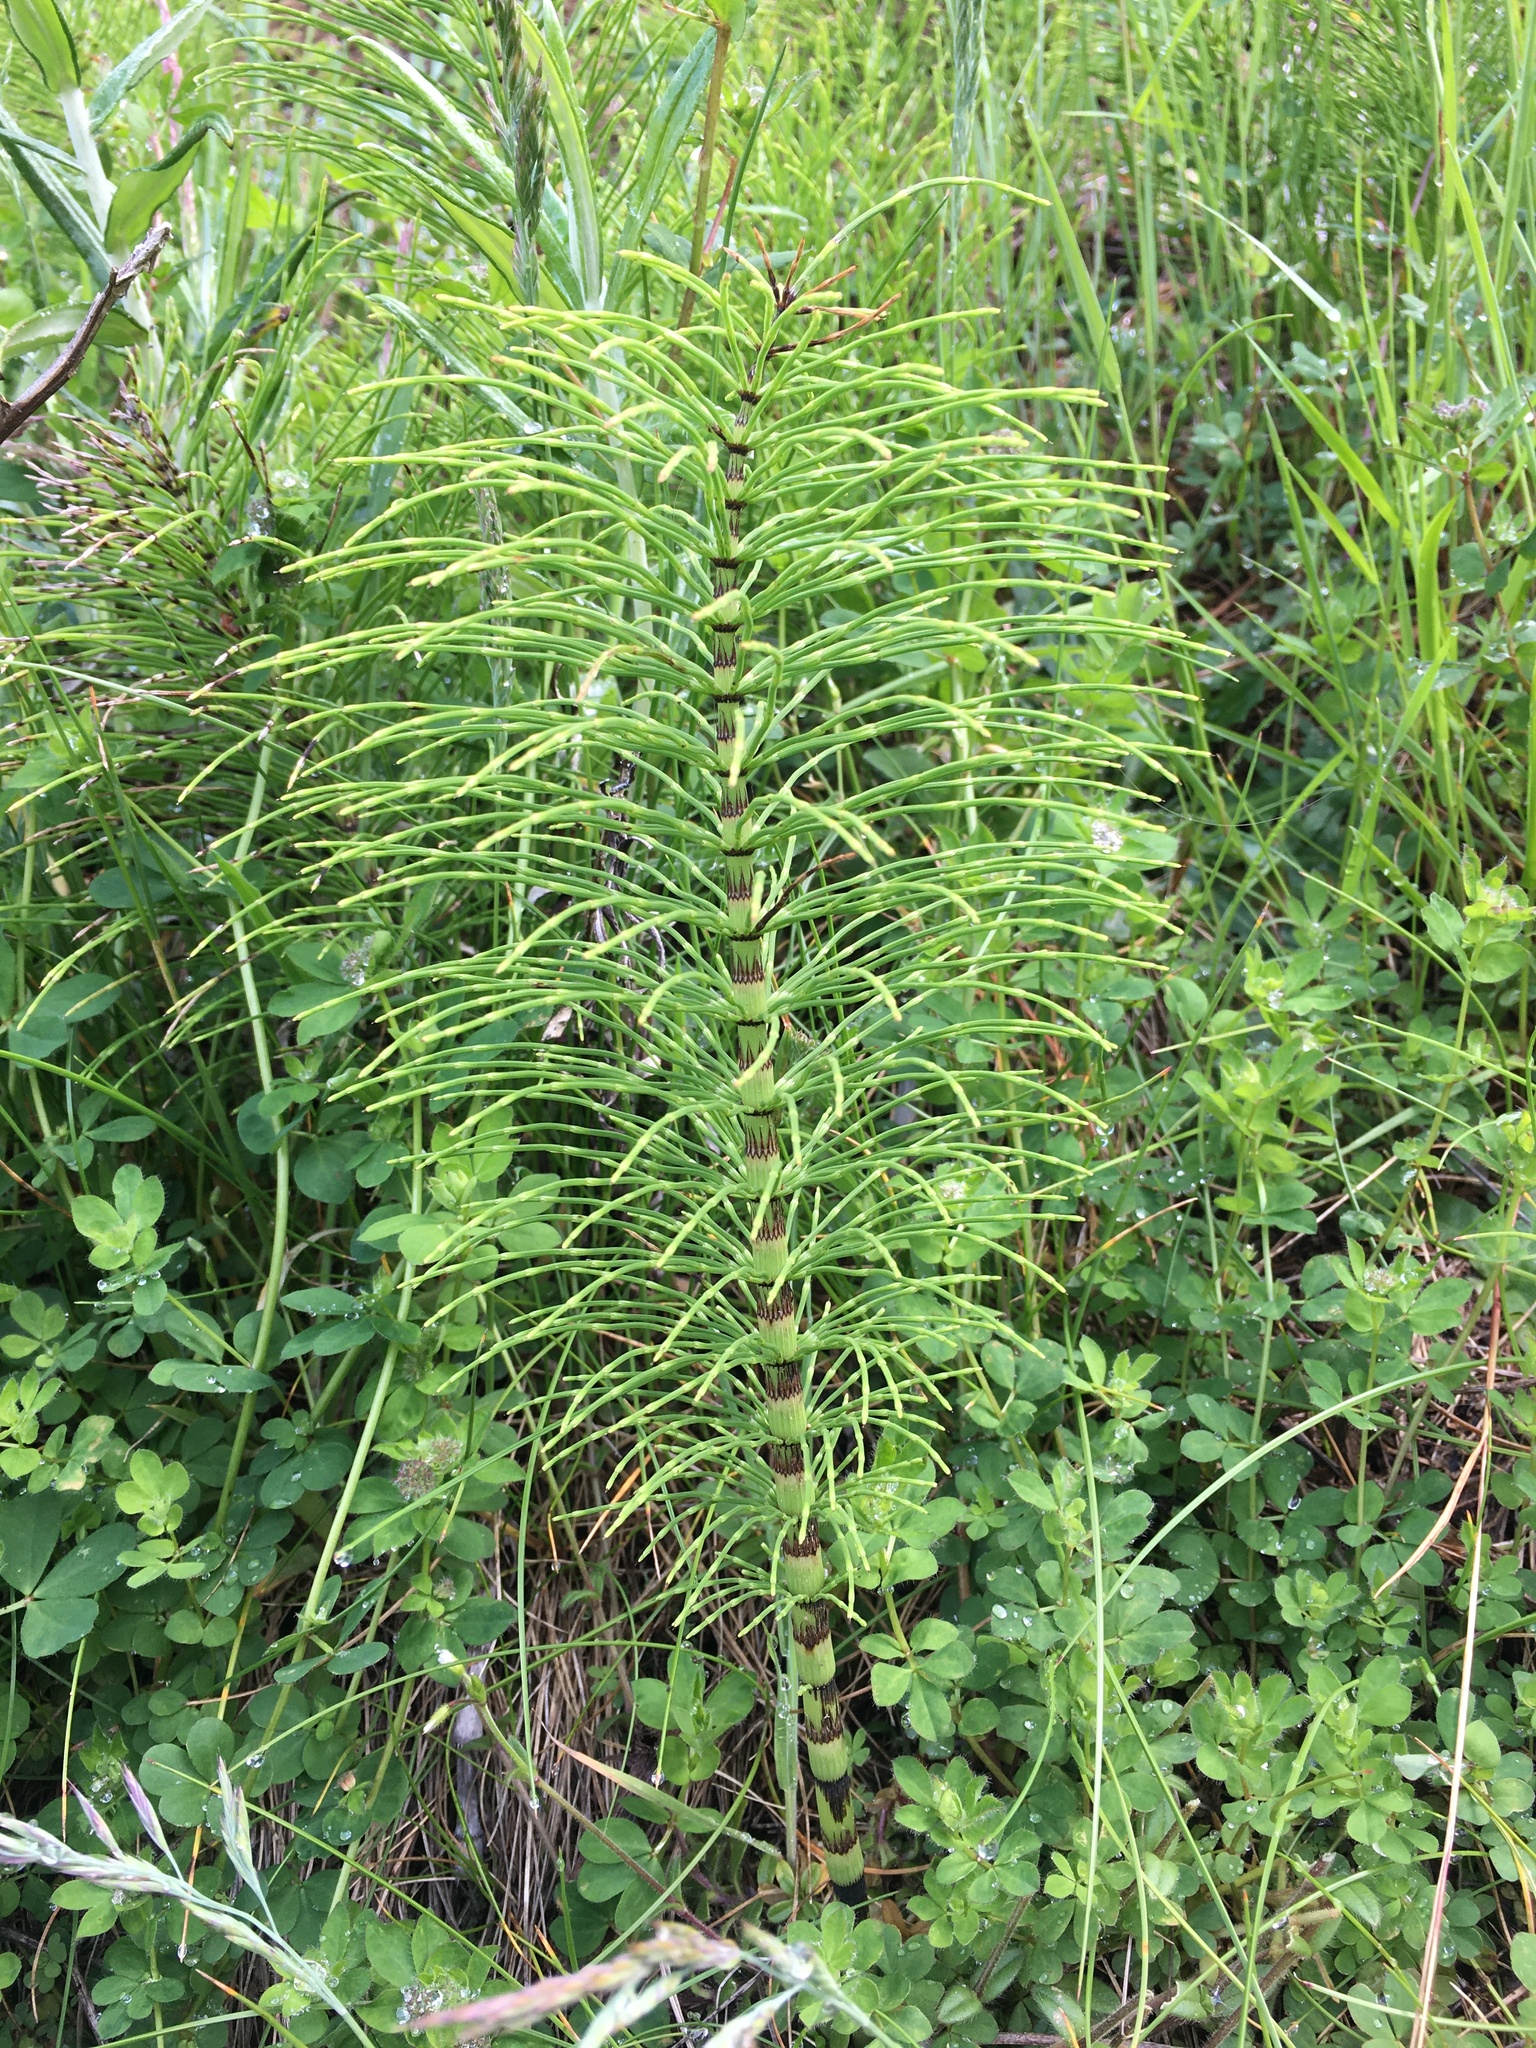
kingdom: Plantae
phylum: Tracheophyta
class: Polypodiopsida
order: Equisetales
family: Equisetaceae
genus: Equisetum
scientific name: Equisetum telmateia
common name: Great horsetail
